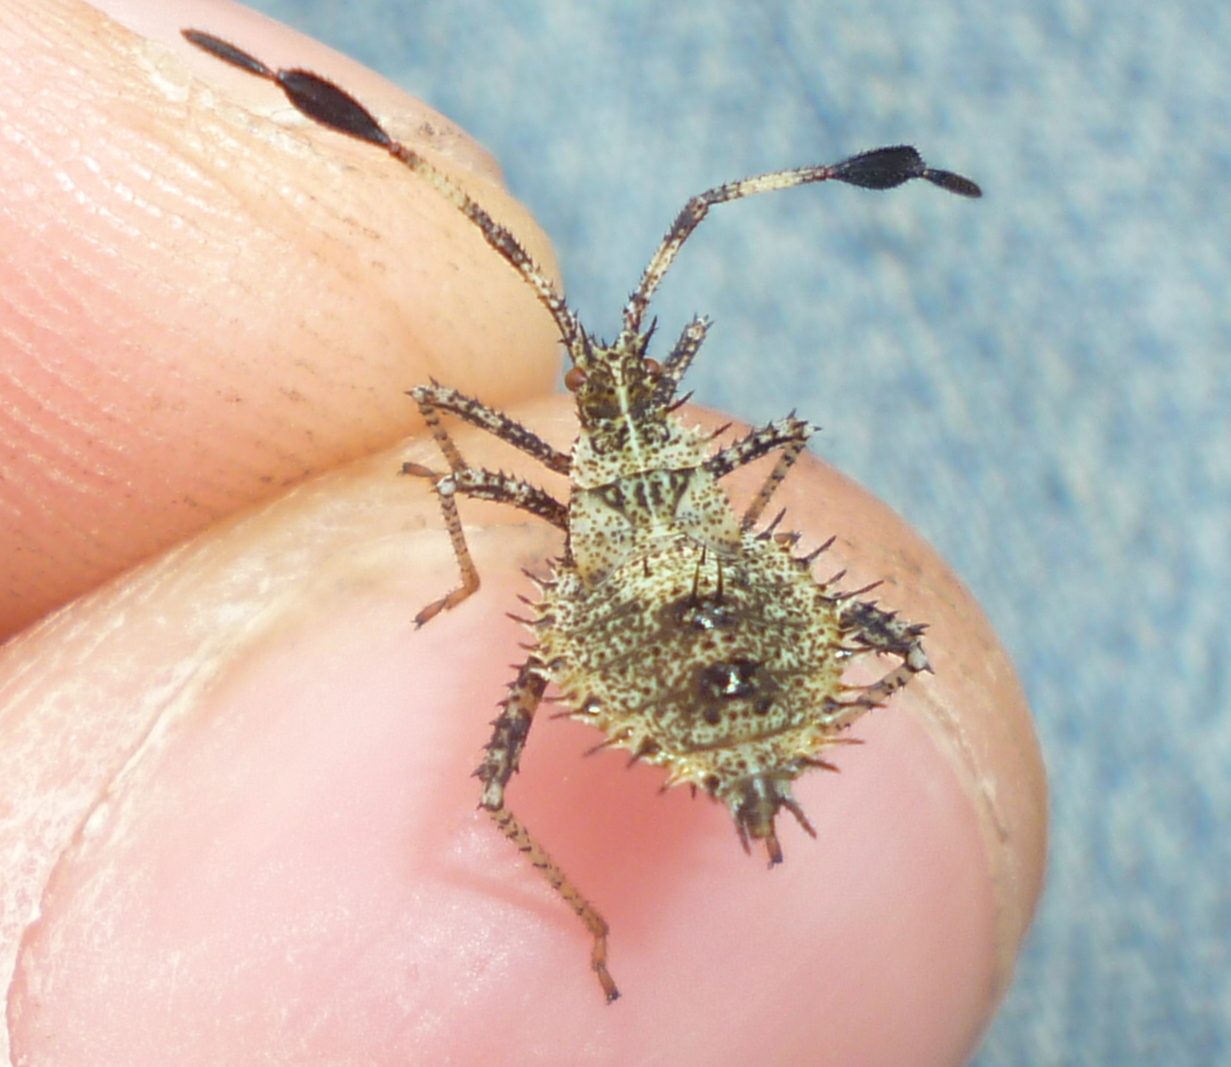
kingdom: Animalia
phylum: Arthropoda
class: Insecta
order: Hemiptera
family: Coreidae
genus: Euthochtha
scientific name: Euthochtha galeator
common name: Helmeted squash bug
